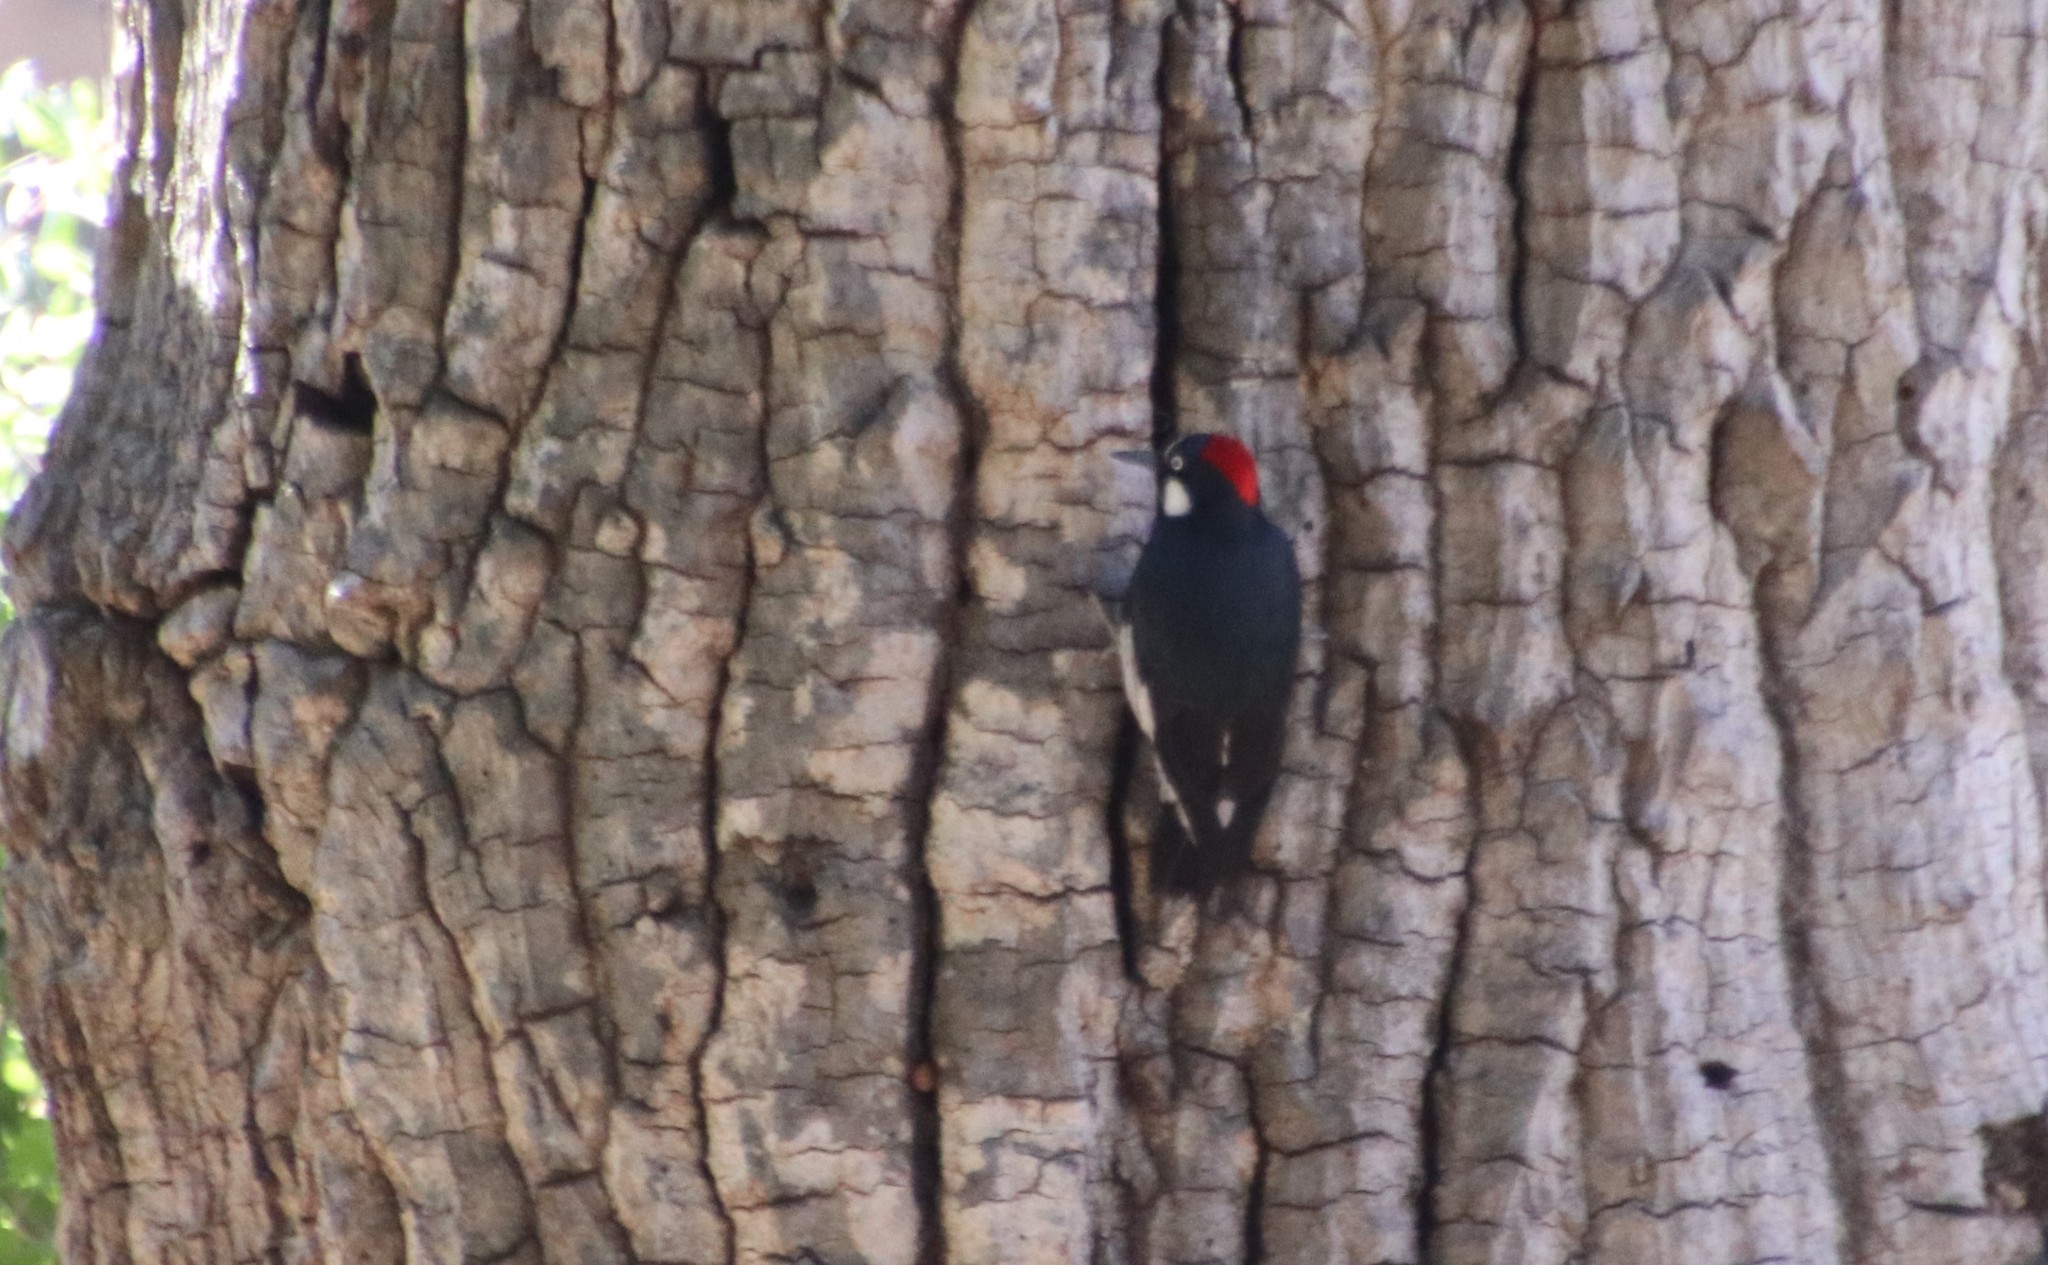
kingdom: Animalia
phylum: Chordata
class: Aves
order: Piciformes
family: Picidae
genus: Melanerpes
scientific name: Melanerpes formicivorus
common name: Acorn woodpecker
